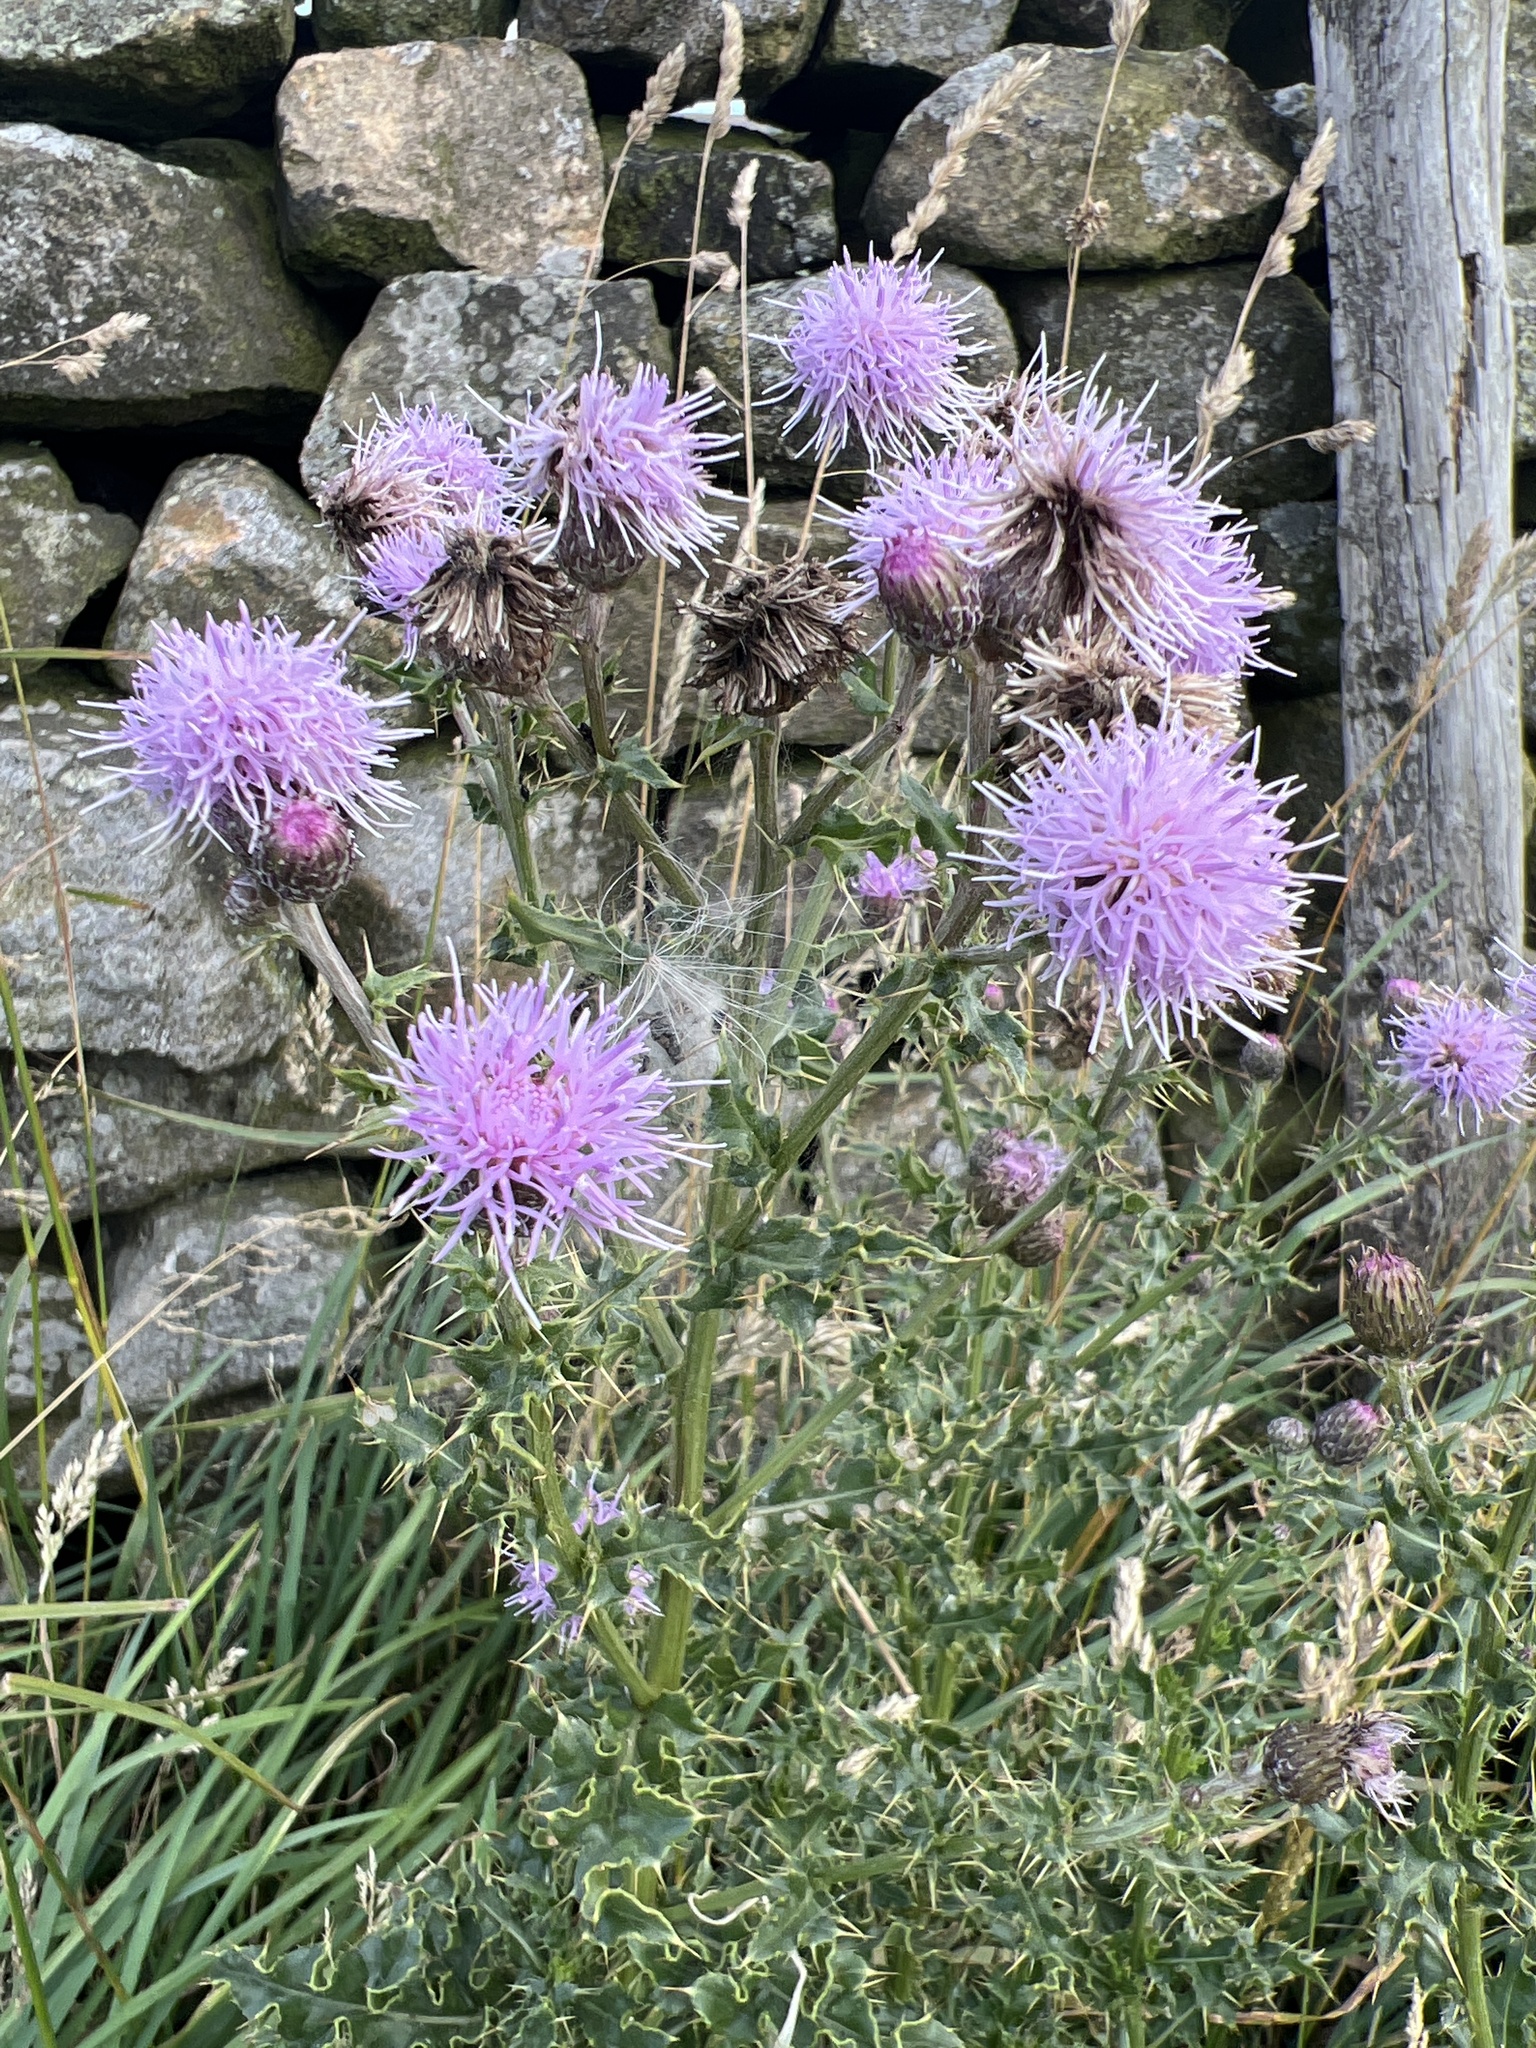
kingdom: Plantae
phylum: Tracheophyta
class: Magnoliopsida
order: Asterales
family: Asteraceae
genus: Cirsium
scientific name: Cirsium arvense
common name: Creeping thistle
